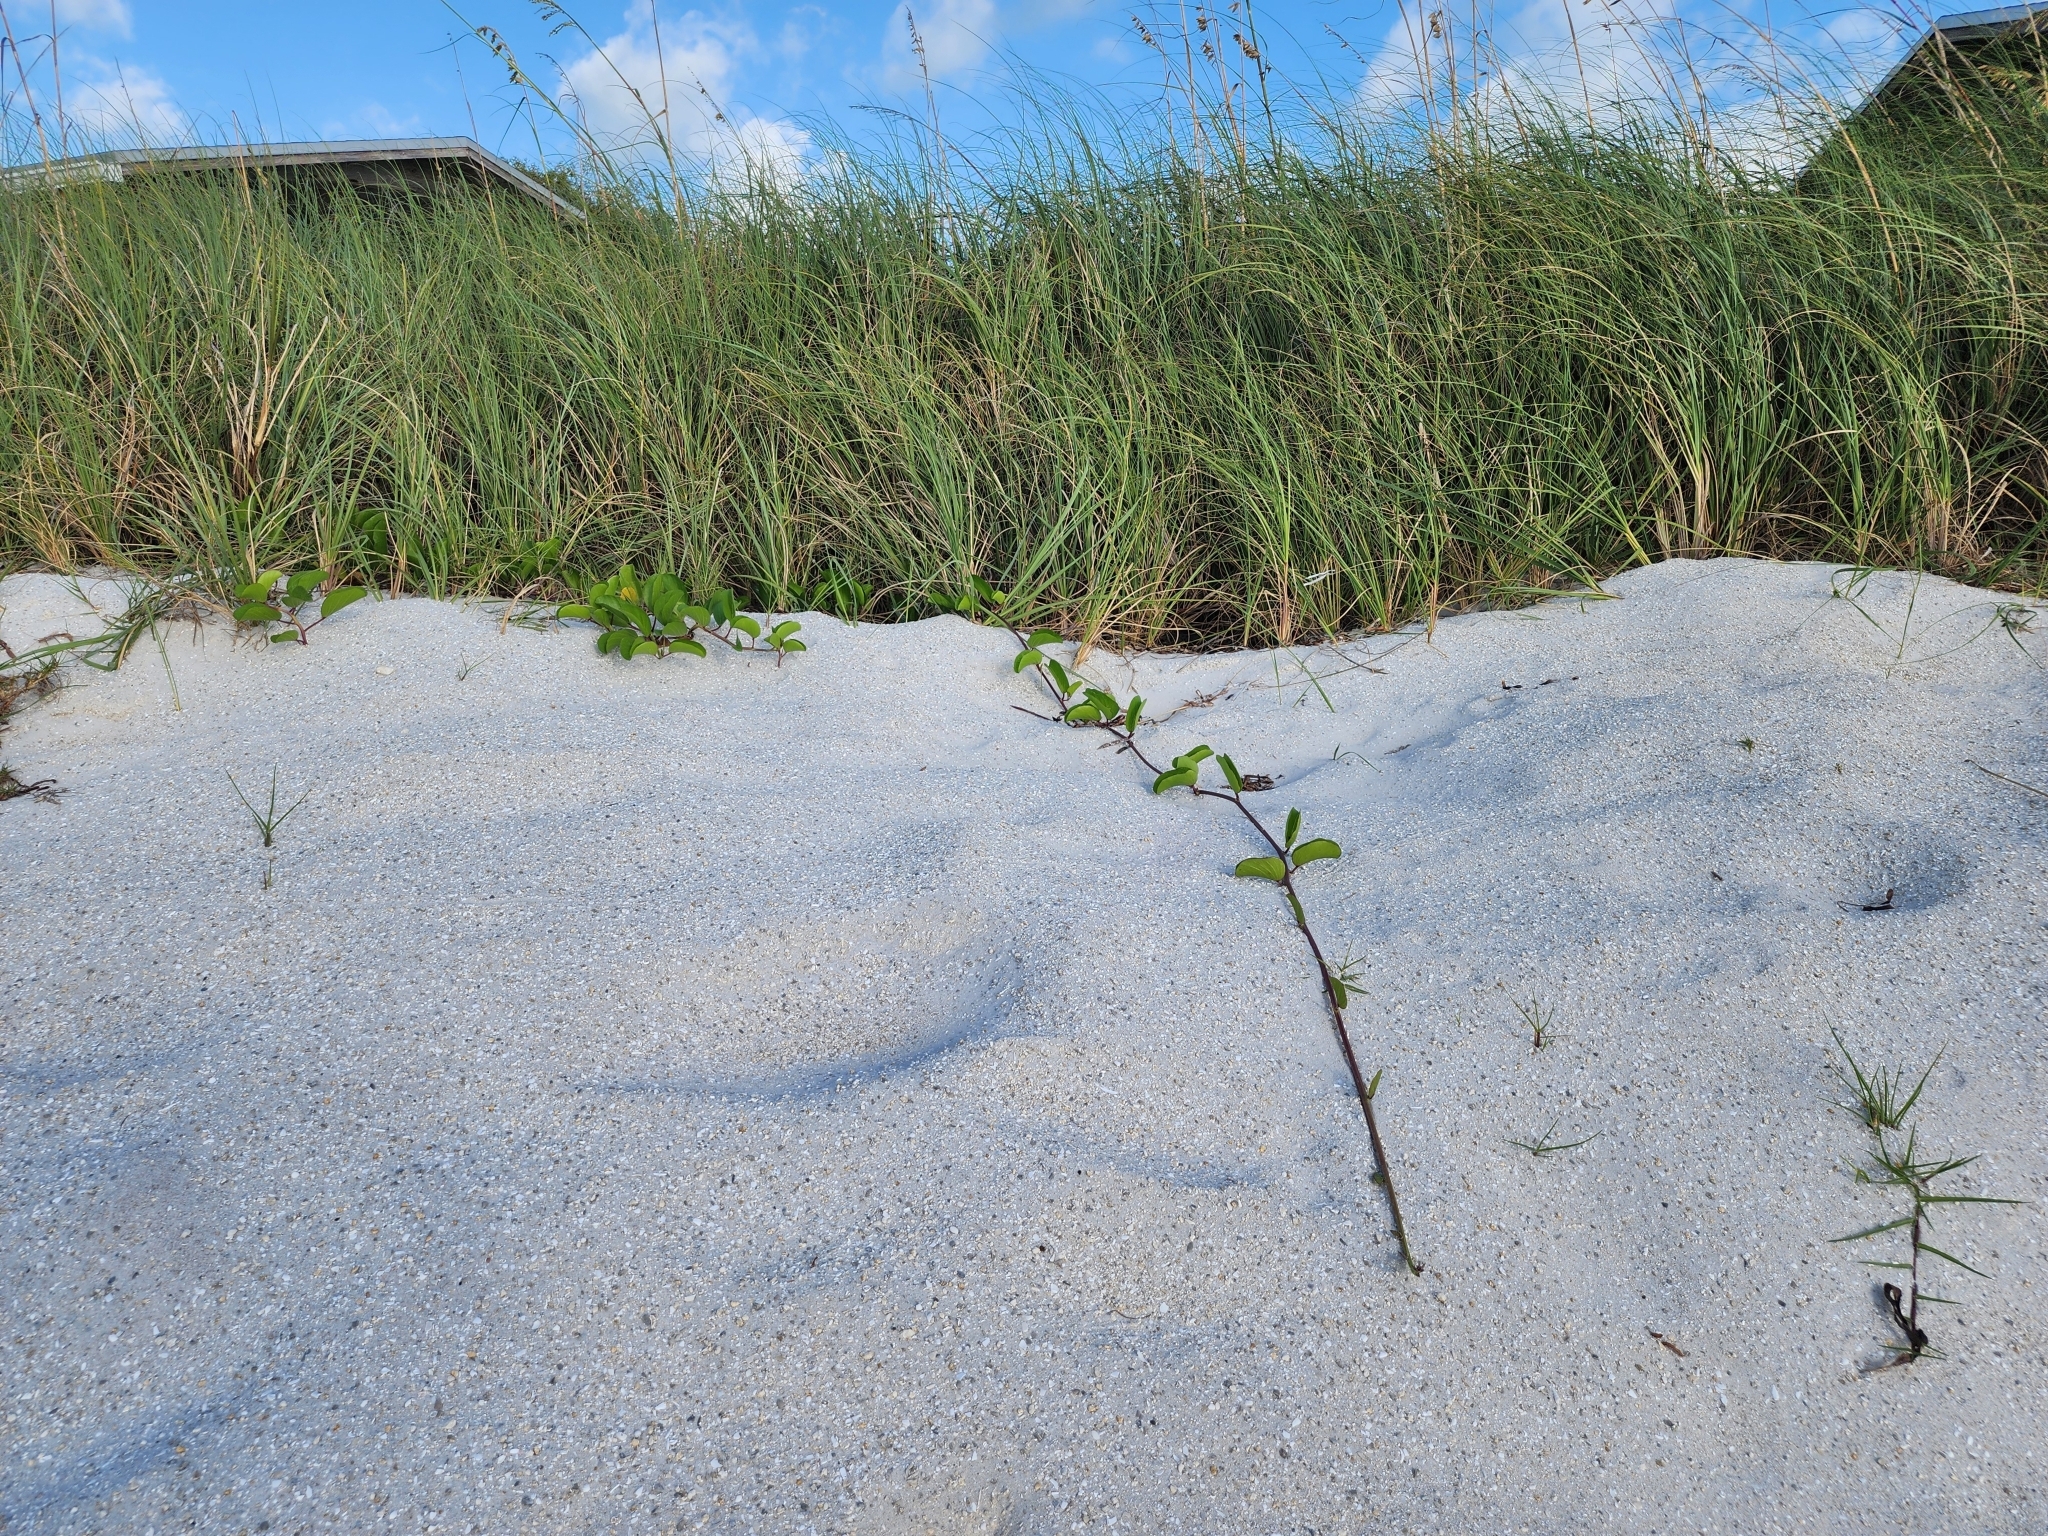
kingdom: Plantae
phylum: Tracheophyta
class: Magnoliopsida
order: Solanales
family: Convolvulaceae
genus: Ipomoea
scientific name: Ipomoea pes-caprae
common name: Beach morning glory
